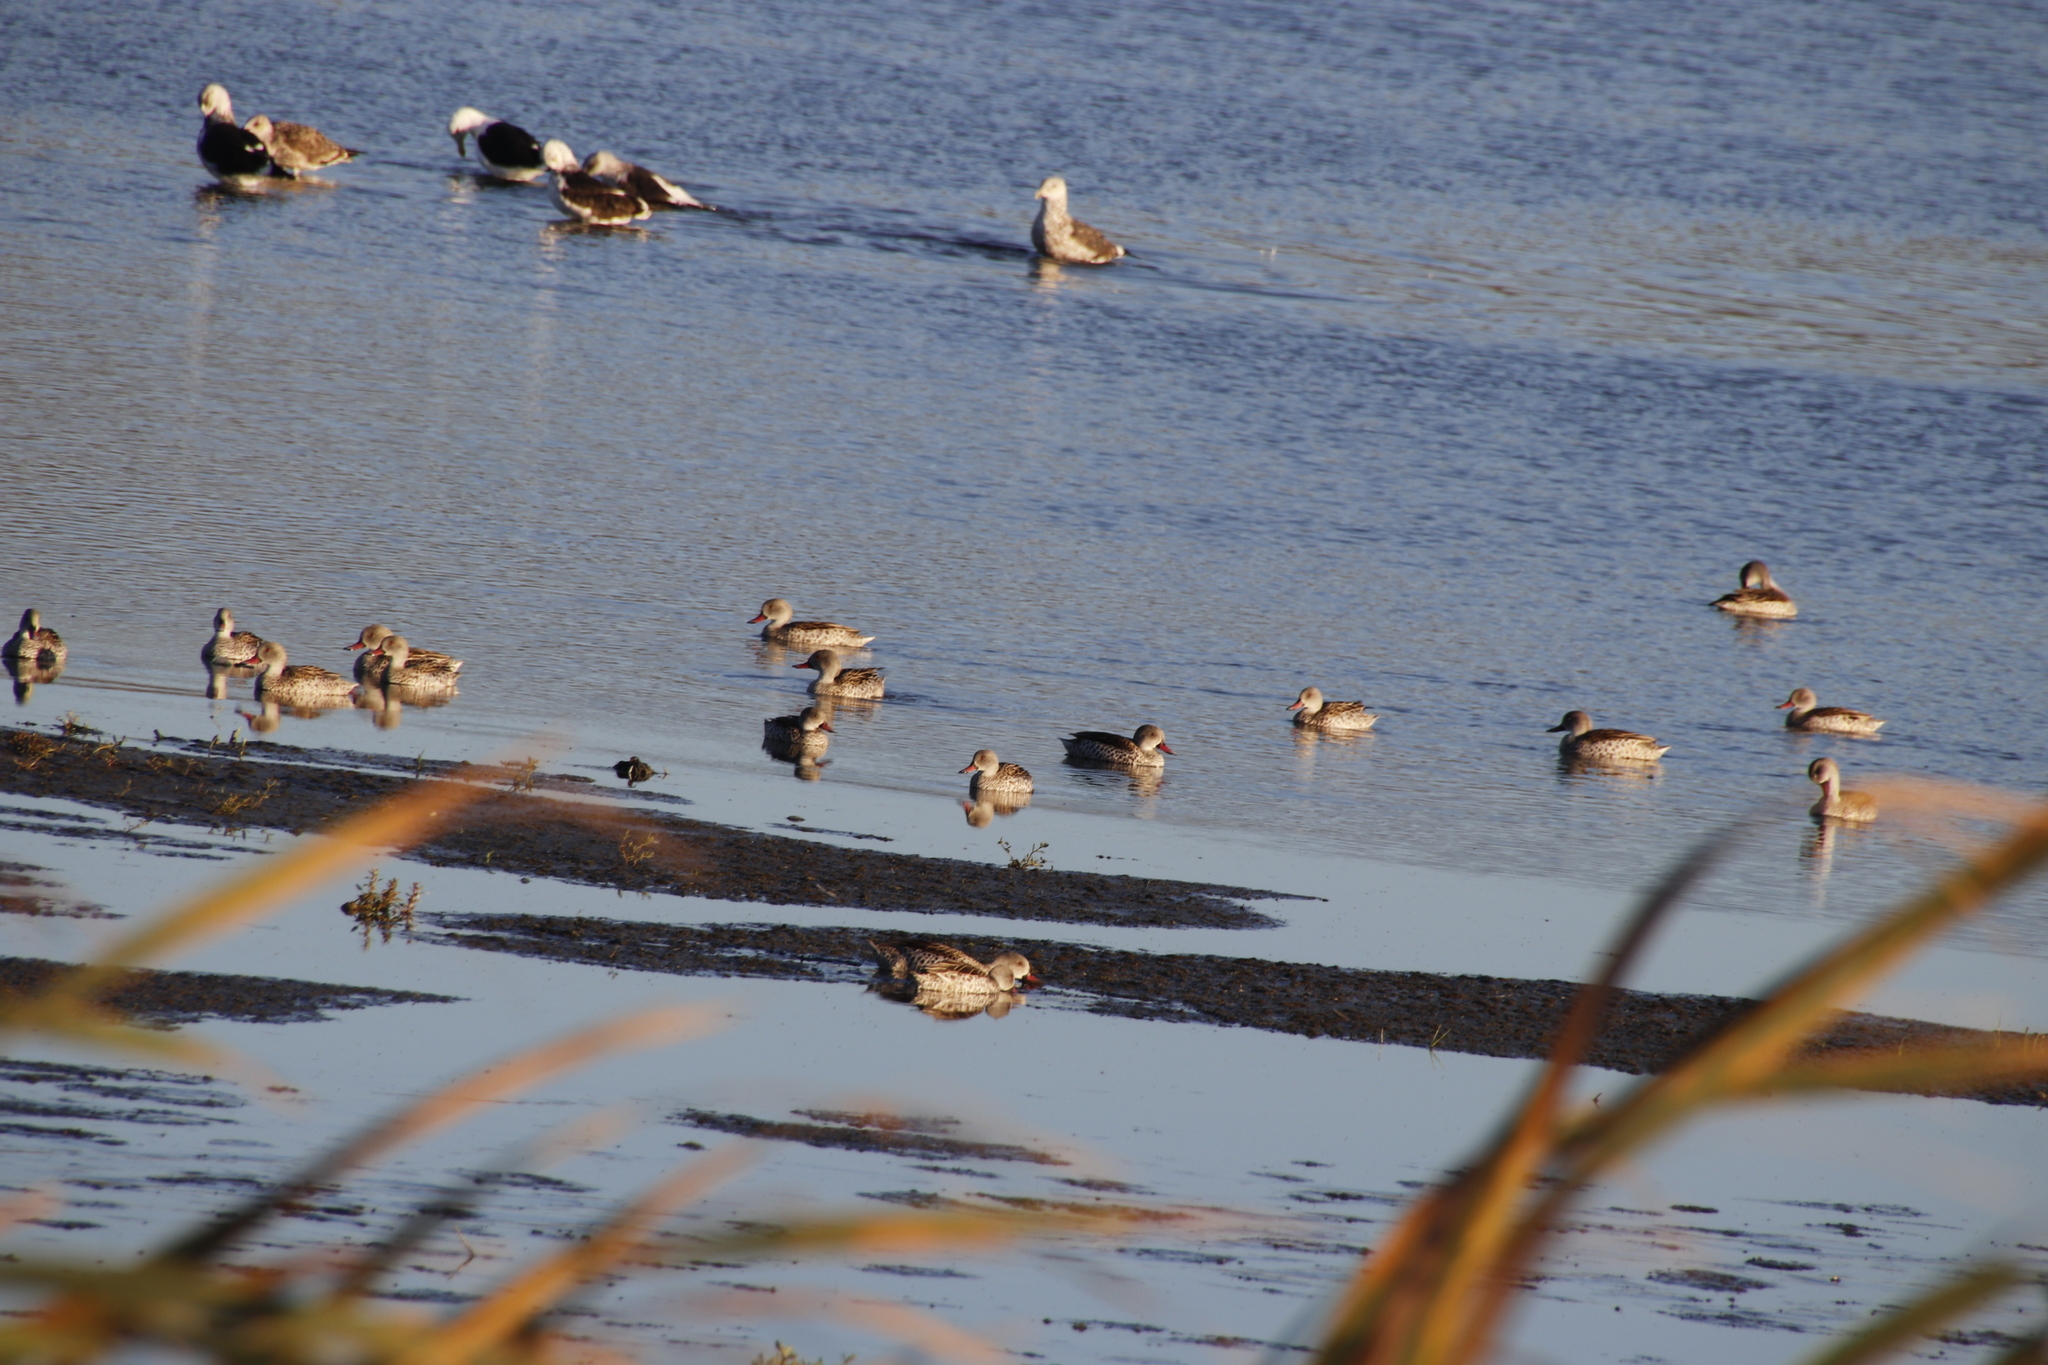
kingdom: Animalia
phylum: Chordata
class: Aves
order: Anseriformes
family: Anatidae
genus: Anas
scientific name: Anas capensis
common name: Cape teal
